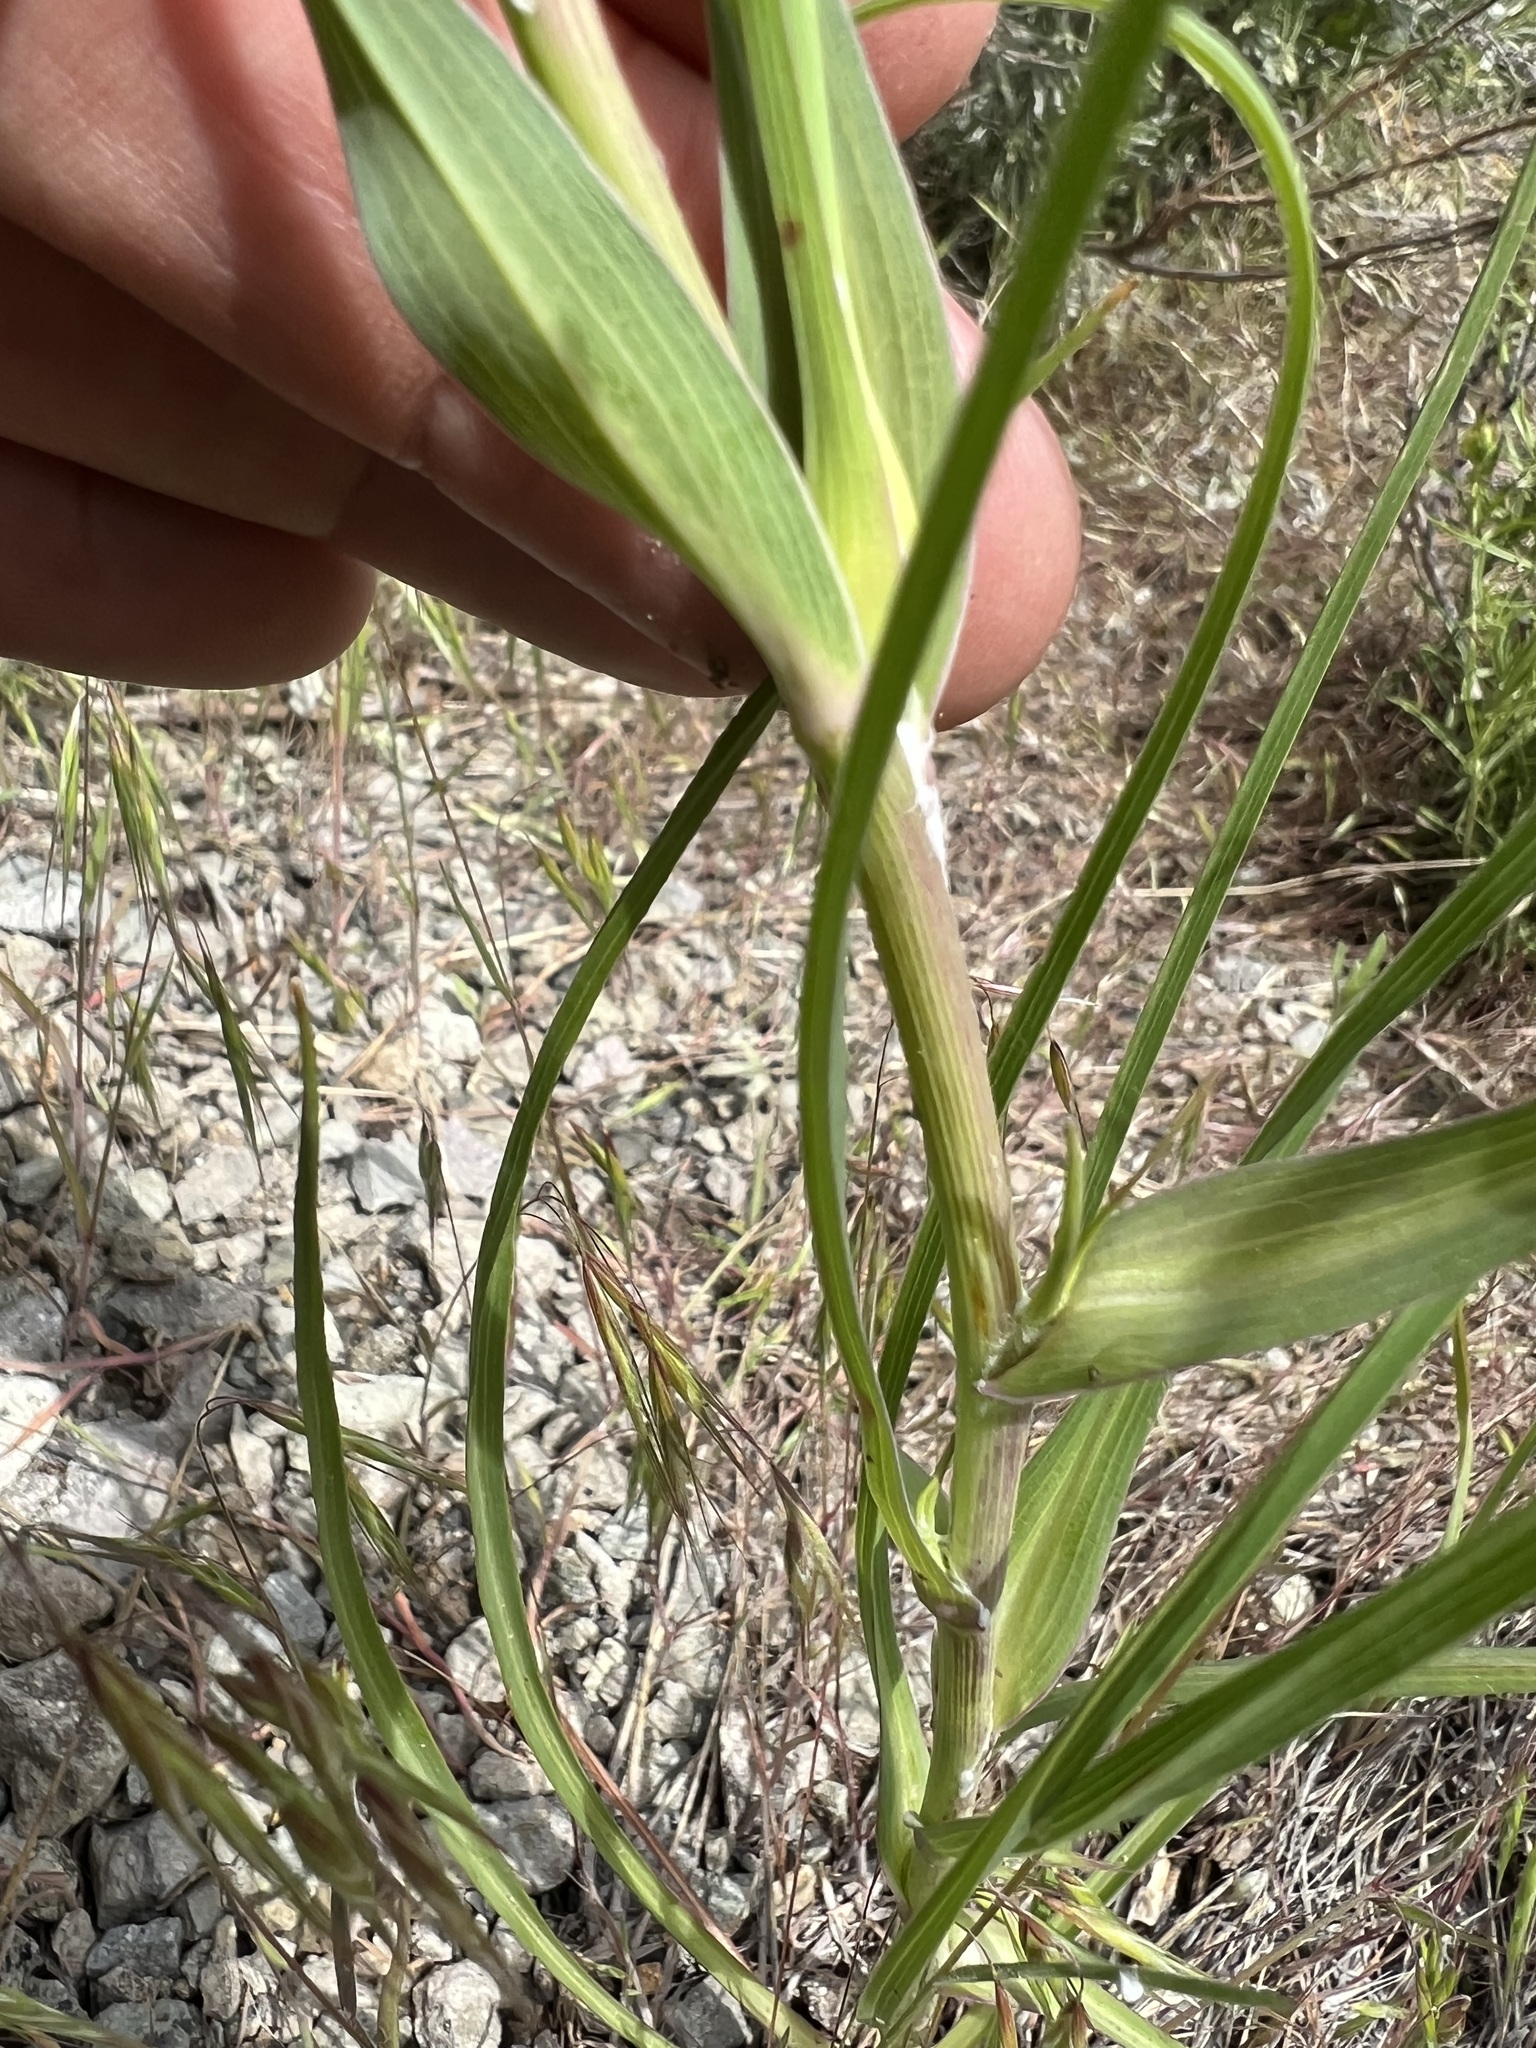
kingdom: Plantae
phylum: Tracheophyta
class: Magnoliopsida
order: Asterales
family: Asteraceae
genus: Tragopogon
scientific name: Tragopogon dubius
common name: Yellow salsify
